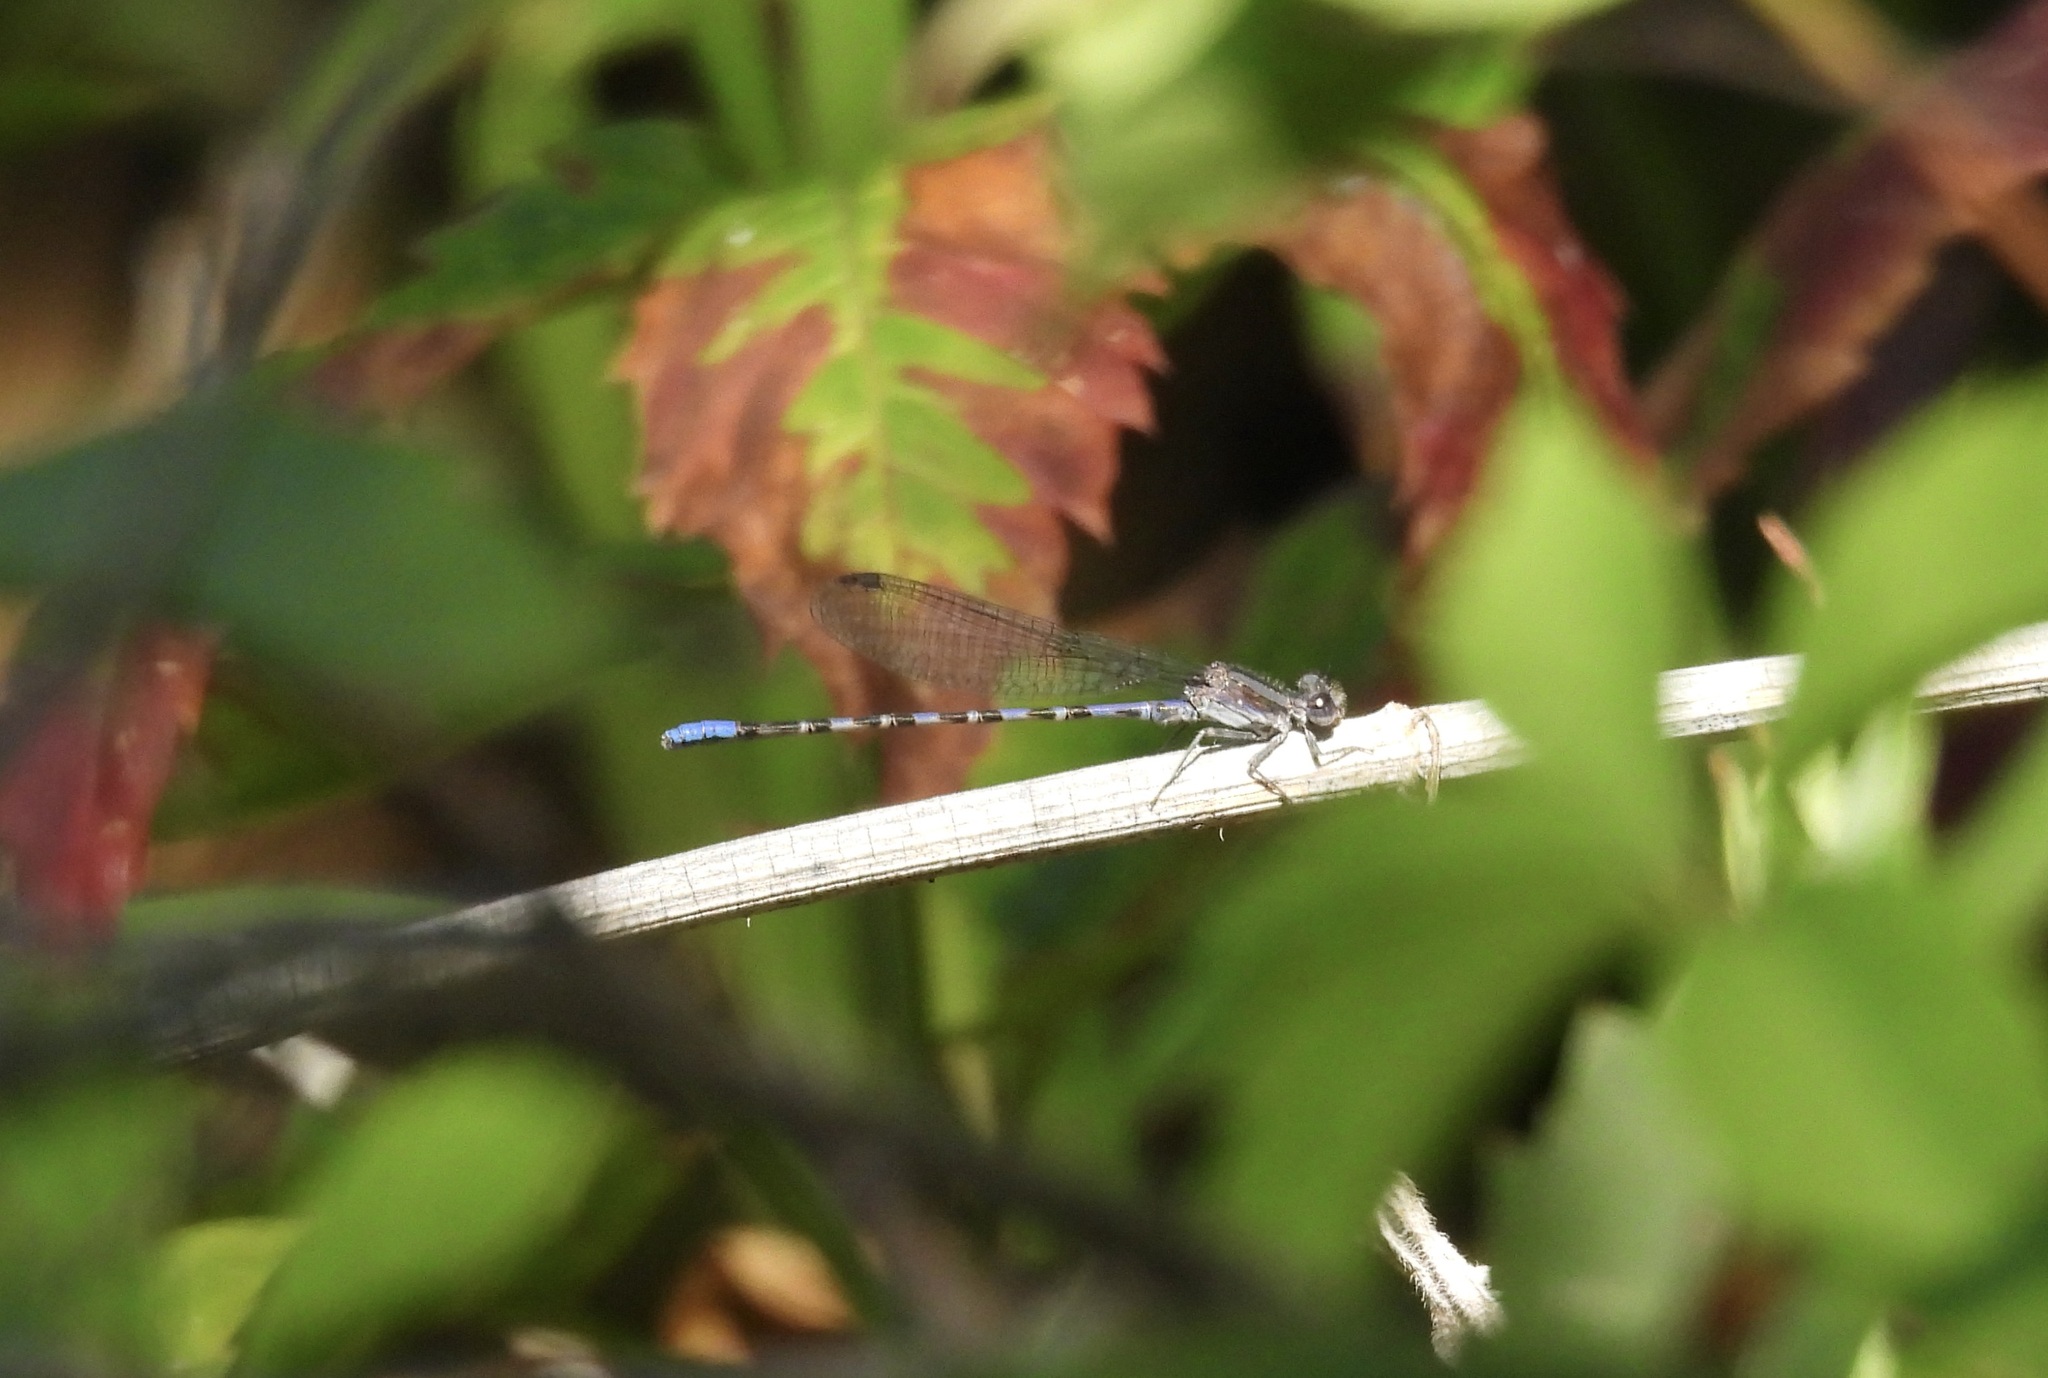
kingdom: Animalia
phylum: Arthropoda
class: Insecta
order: Odonata
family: Coenagrionidae
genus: Argia
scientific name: Argia immunda
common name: Kiowa dancer
